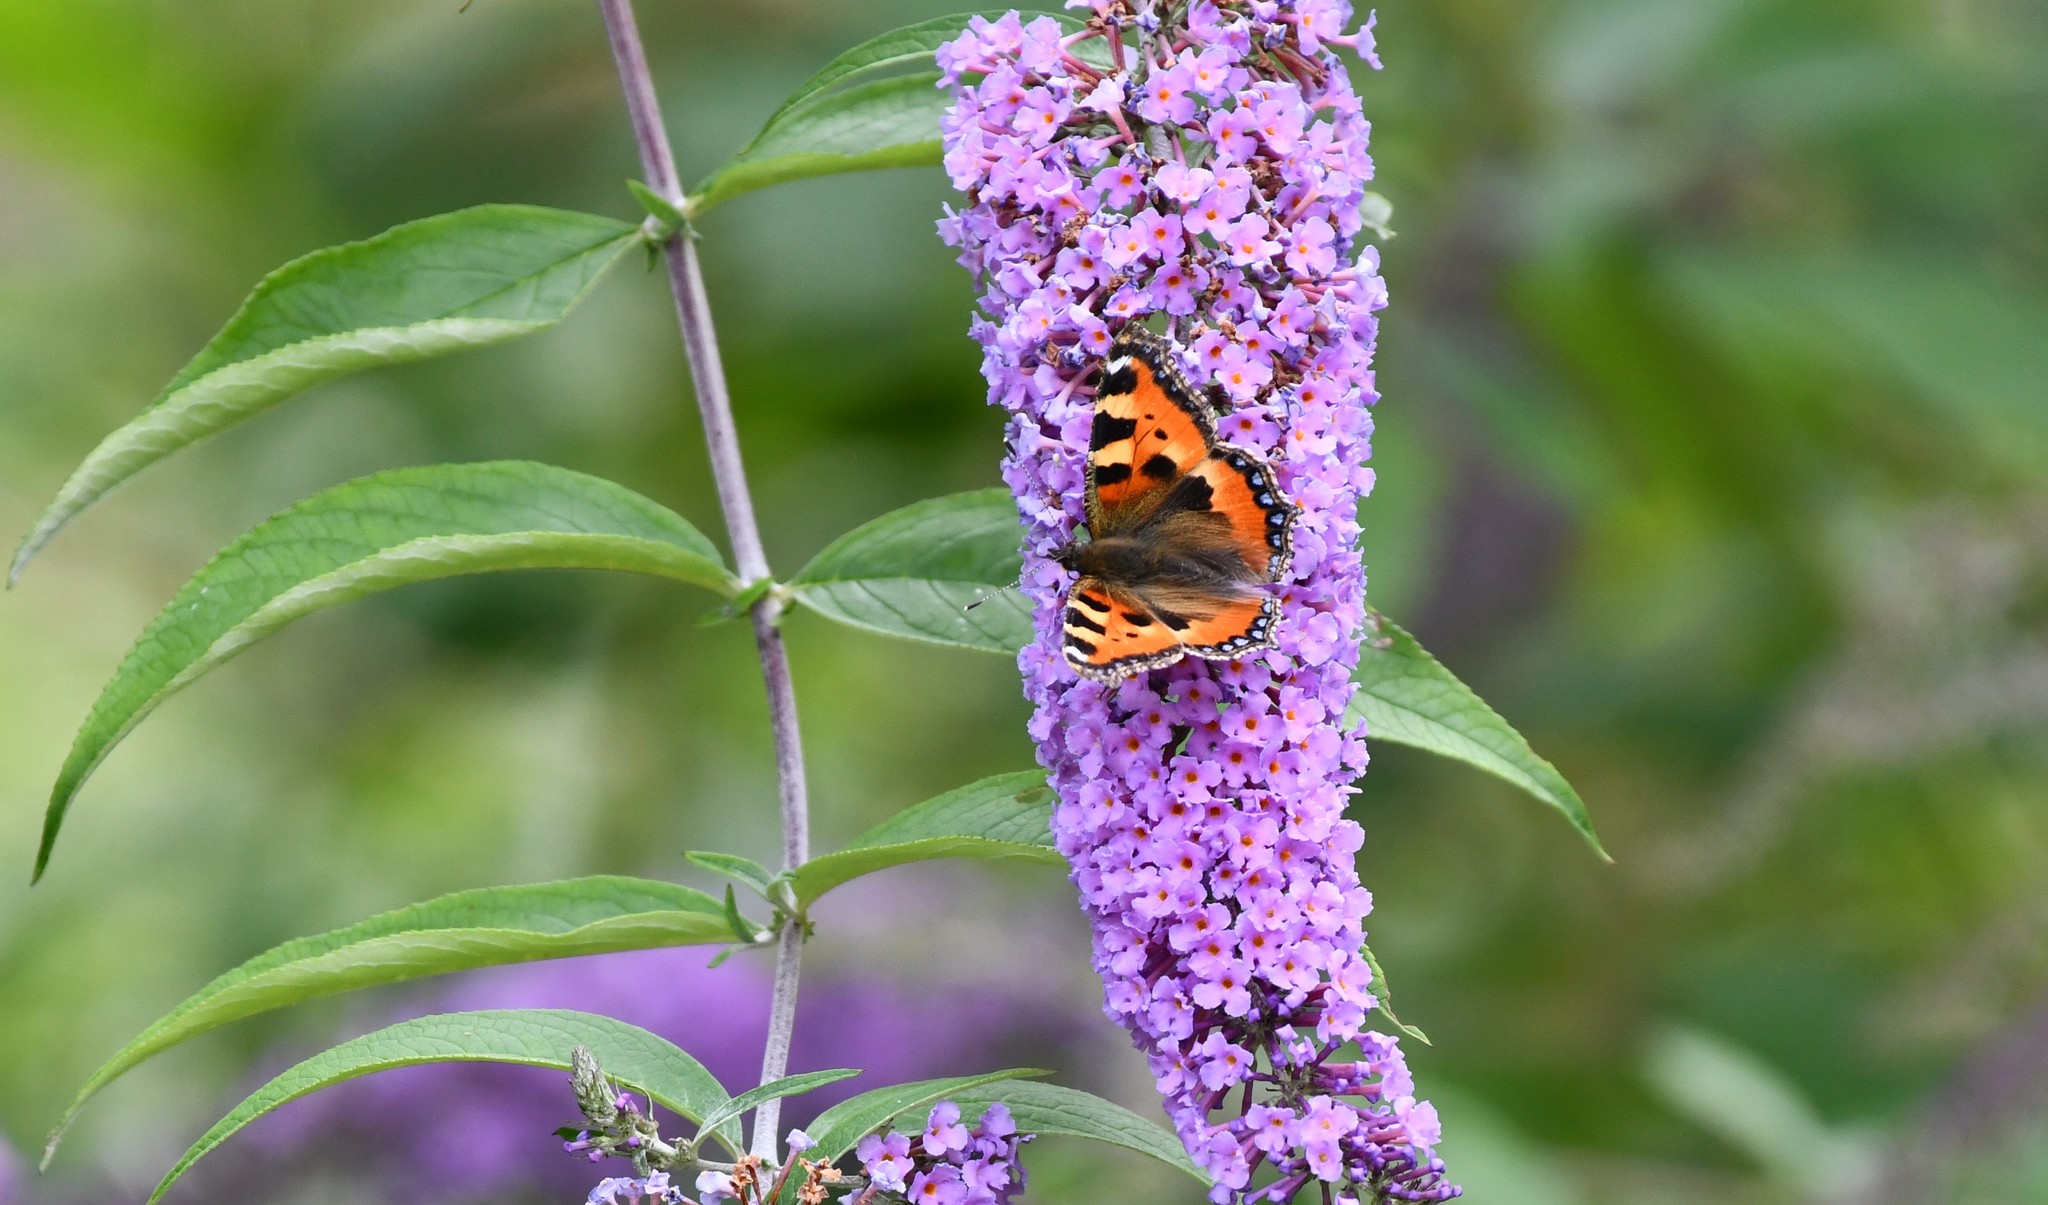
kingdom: Animalia
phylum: Arthropoda
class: Insecta
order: Lepidoptera
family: Nymphalidae
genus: Aglais
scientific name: Aglais urticae
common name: Small tortoiseshell
